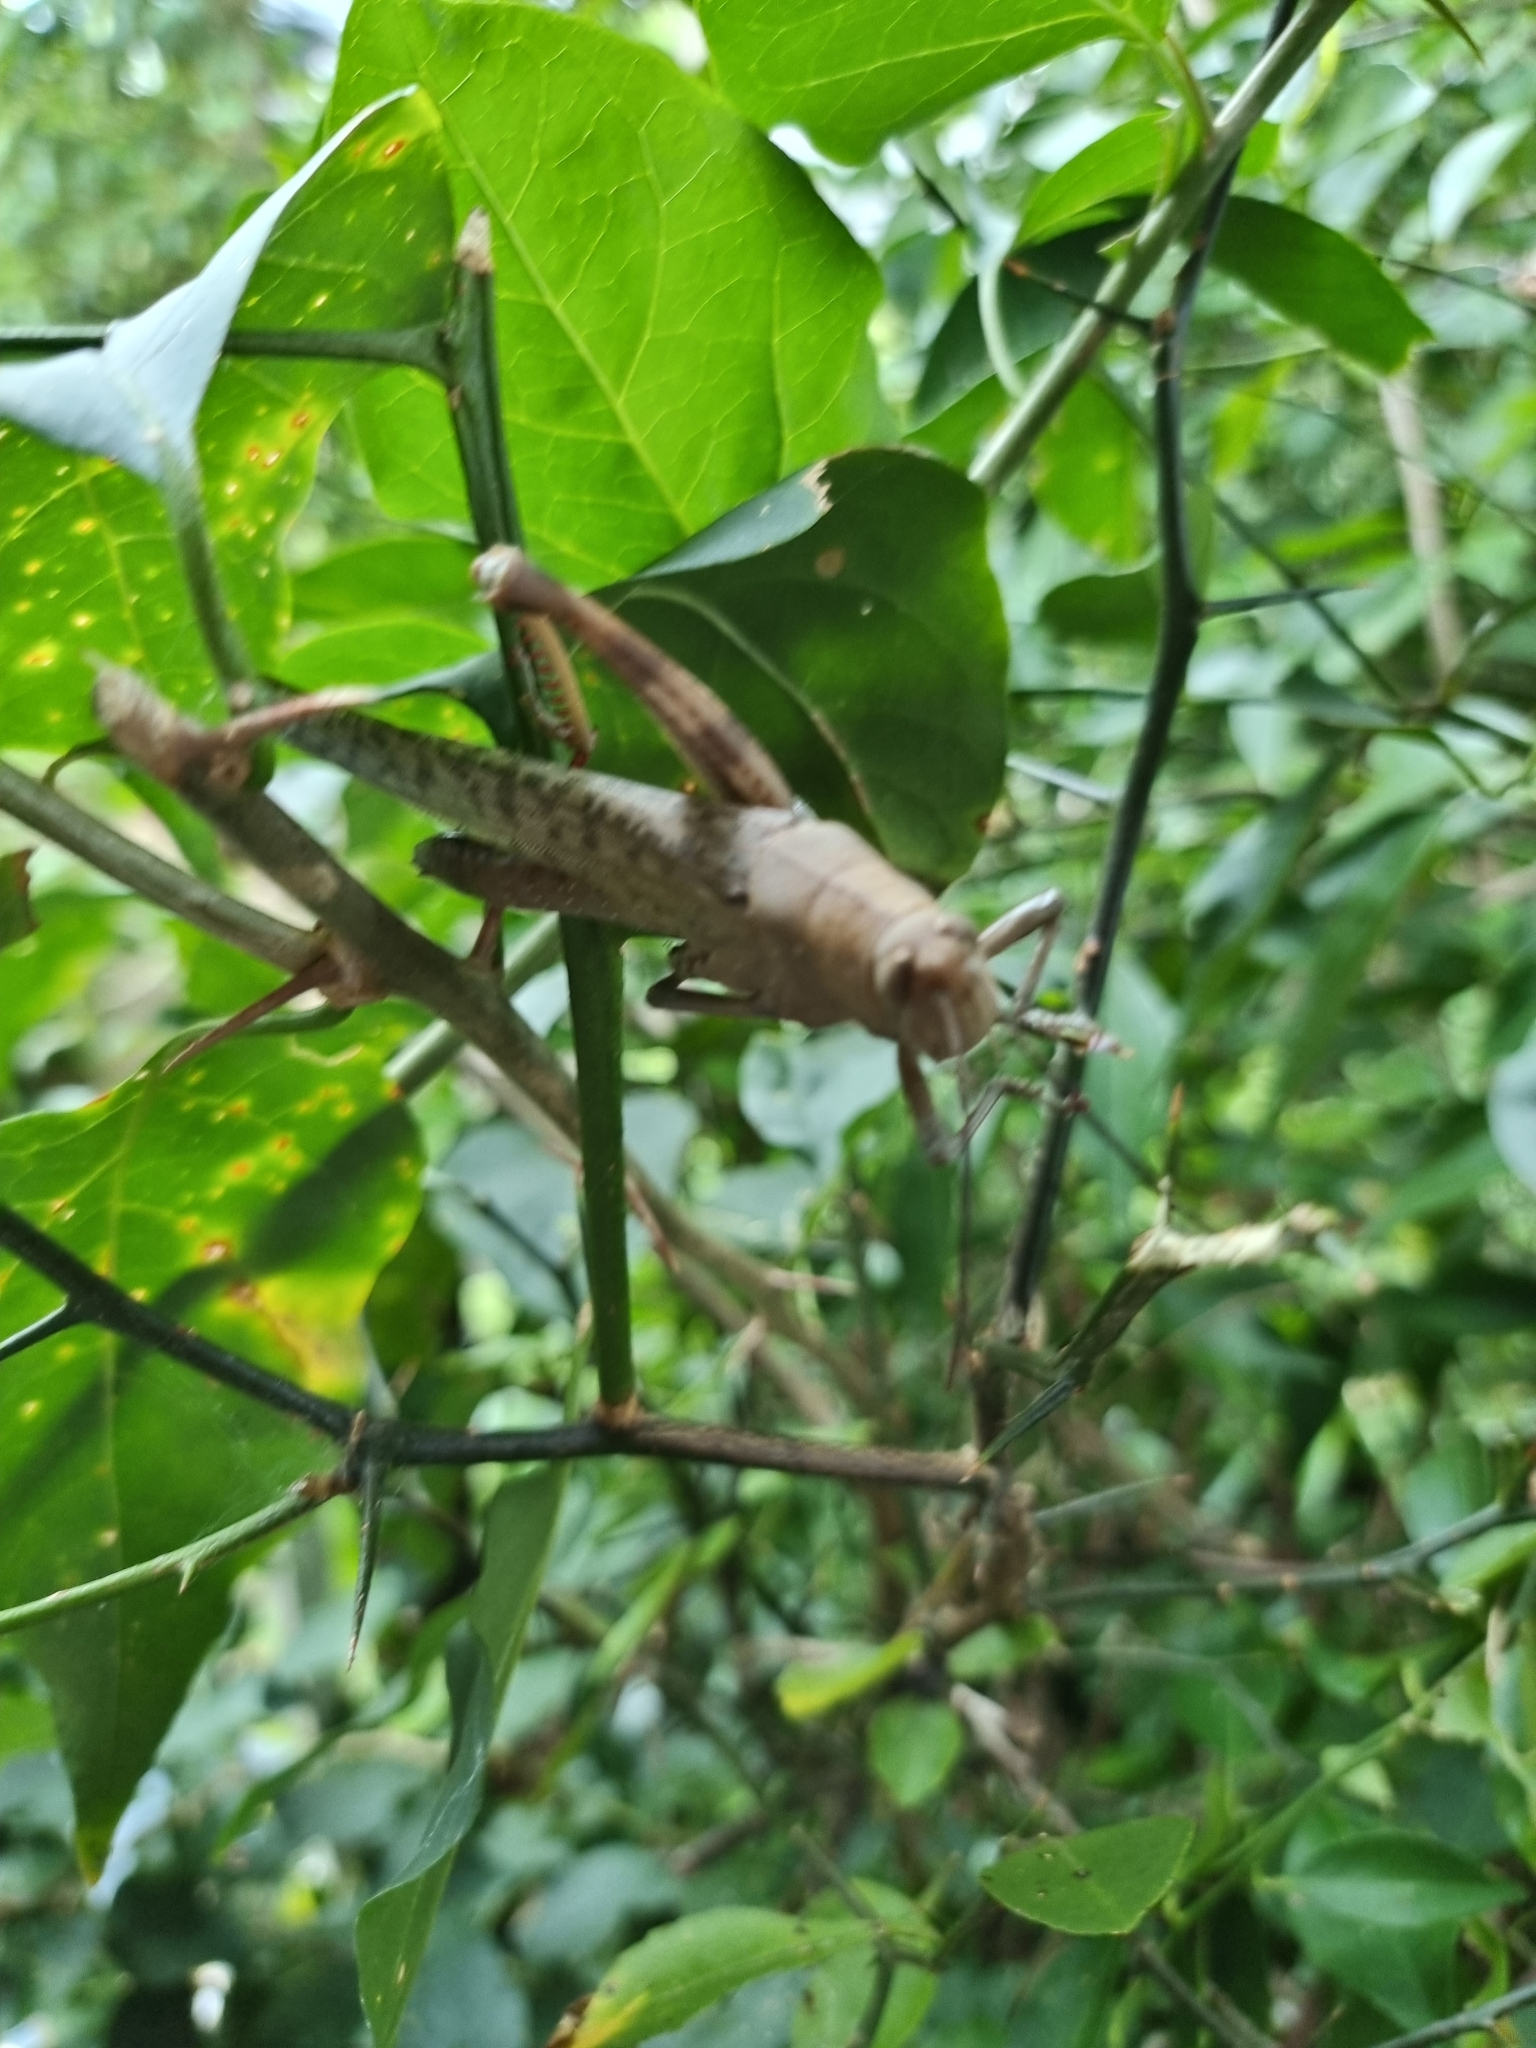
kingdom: Animalia
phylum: Arthropoda
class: Insecta
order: Orthoptera
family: Acrididae
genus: Valanga
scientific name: Valanga irregularis
